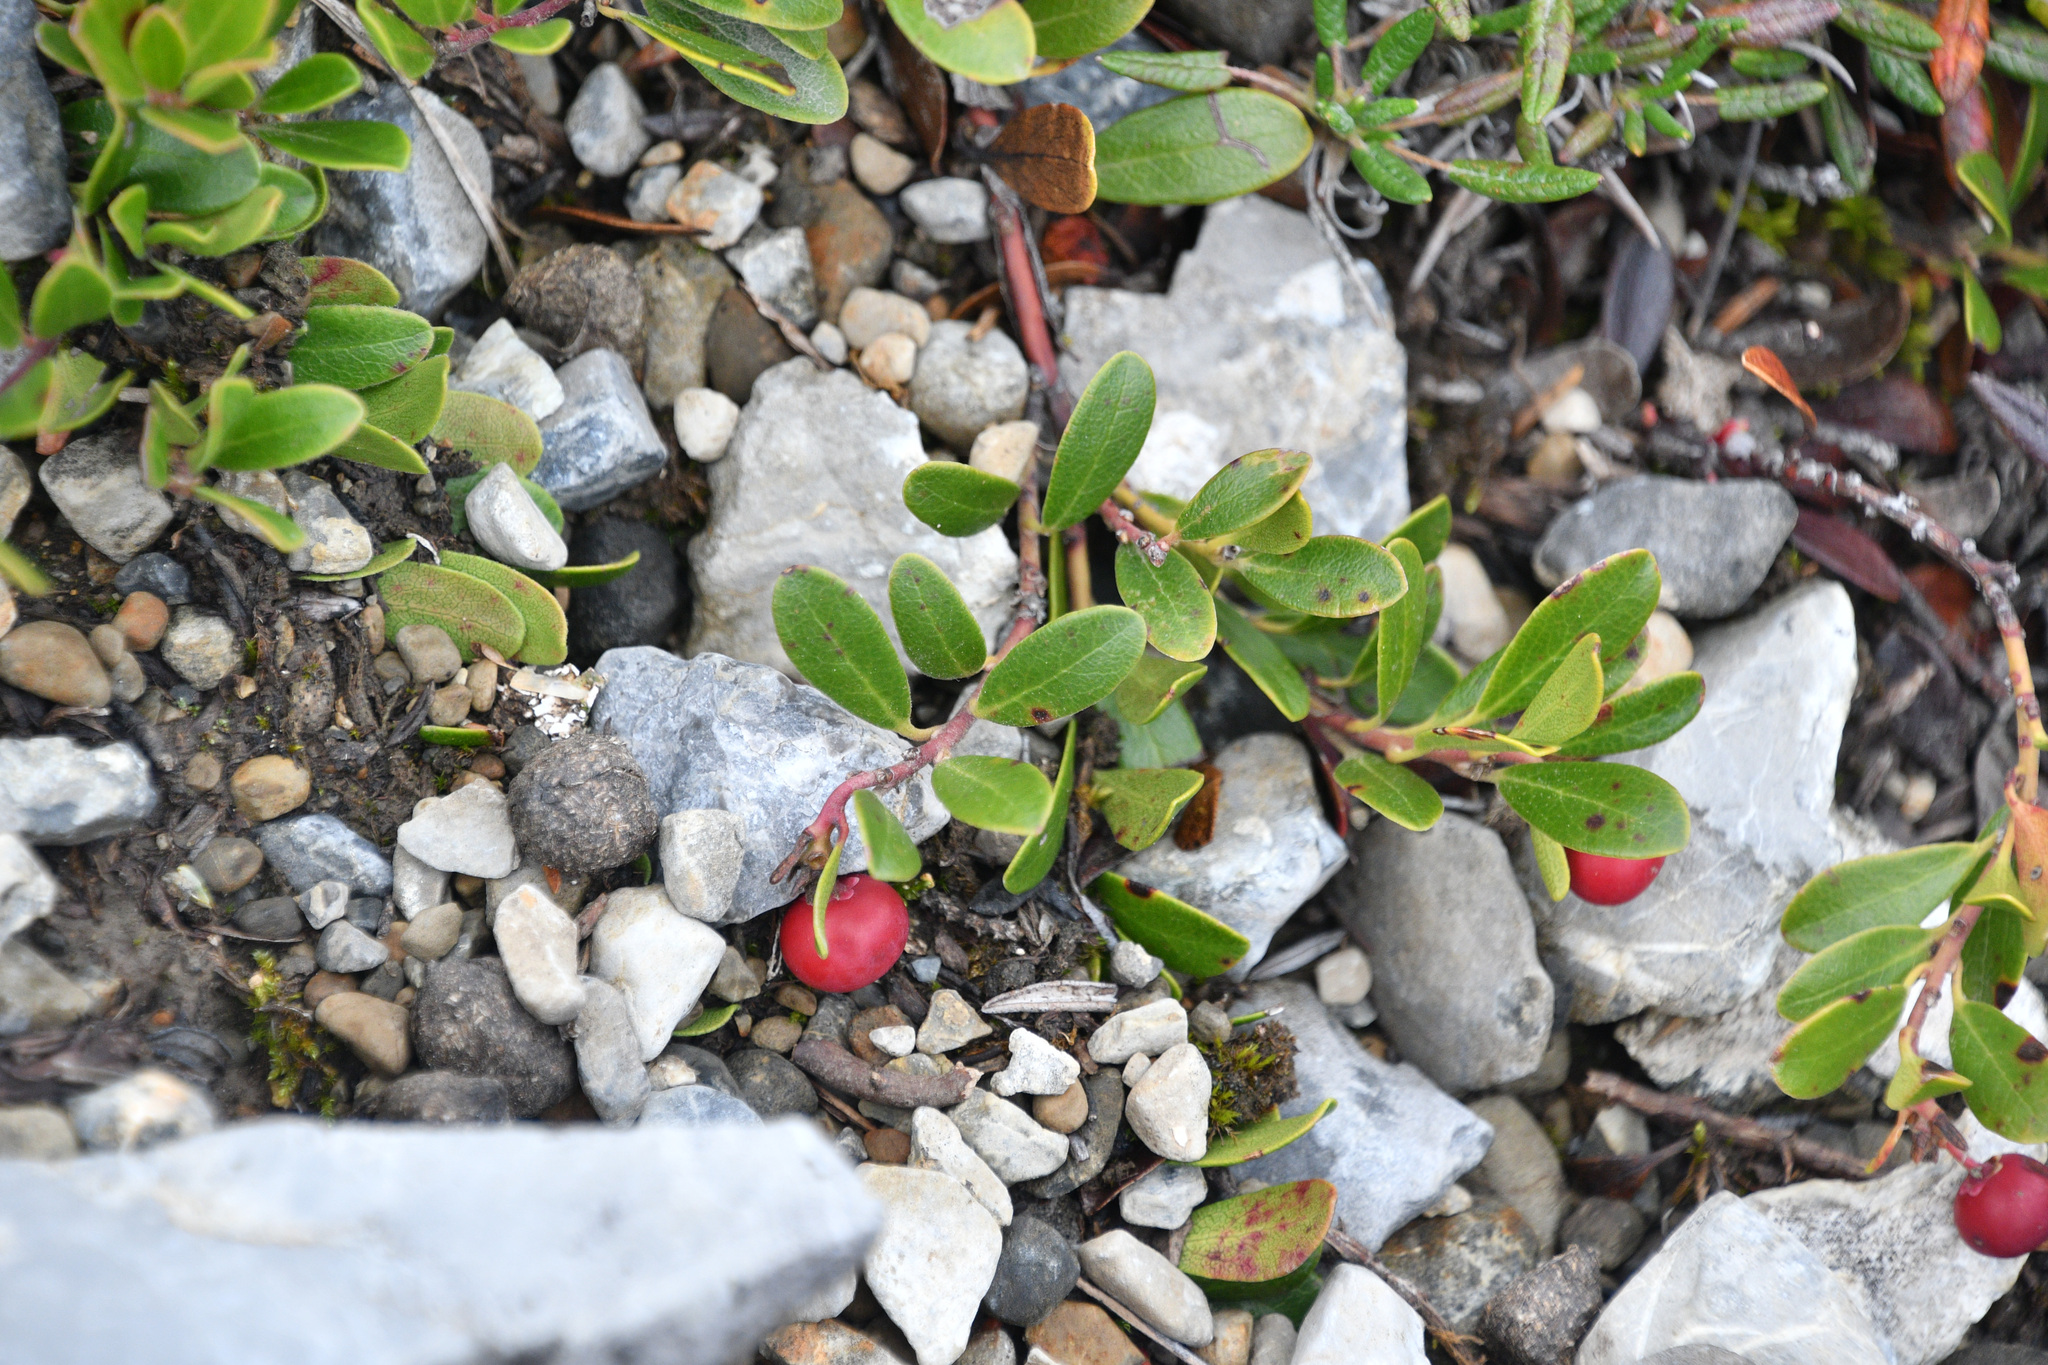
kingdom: Plantae
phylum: Tracheophyta
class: Magnoliopsida
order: Ericales
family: Ericaceae
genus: Arctostaphylos
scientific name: Arctostaphylos uva-ursi
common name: Bearberry
